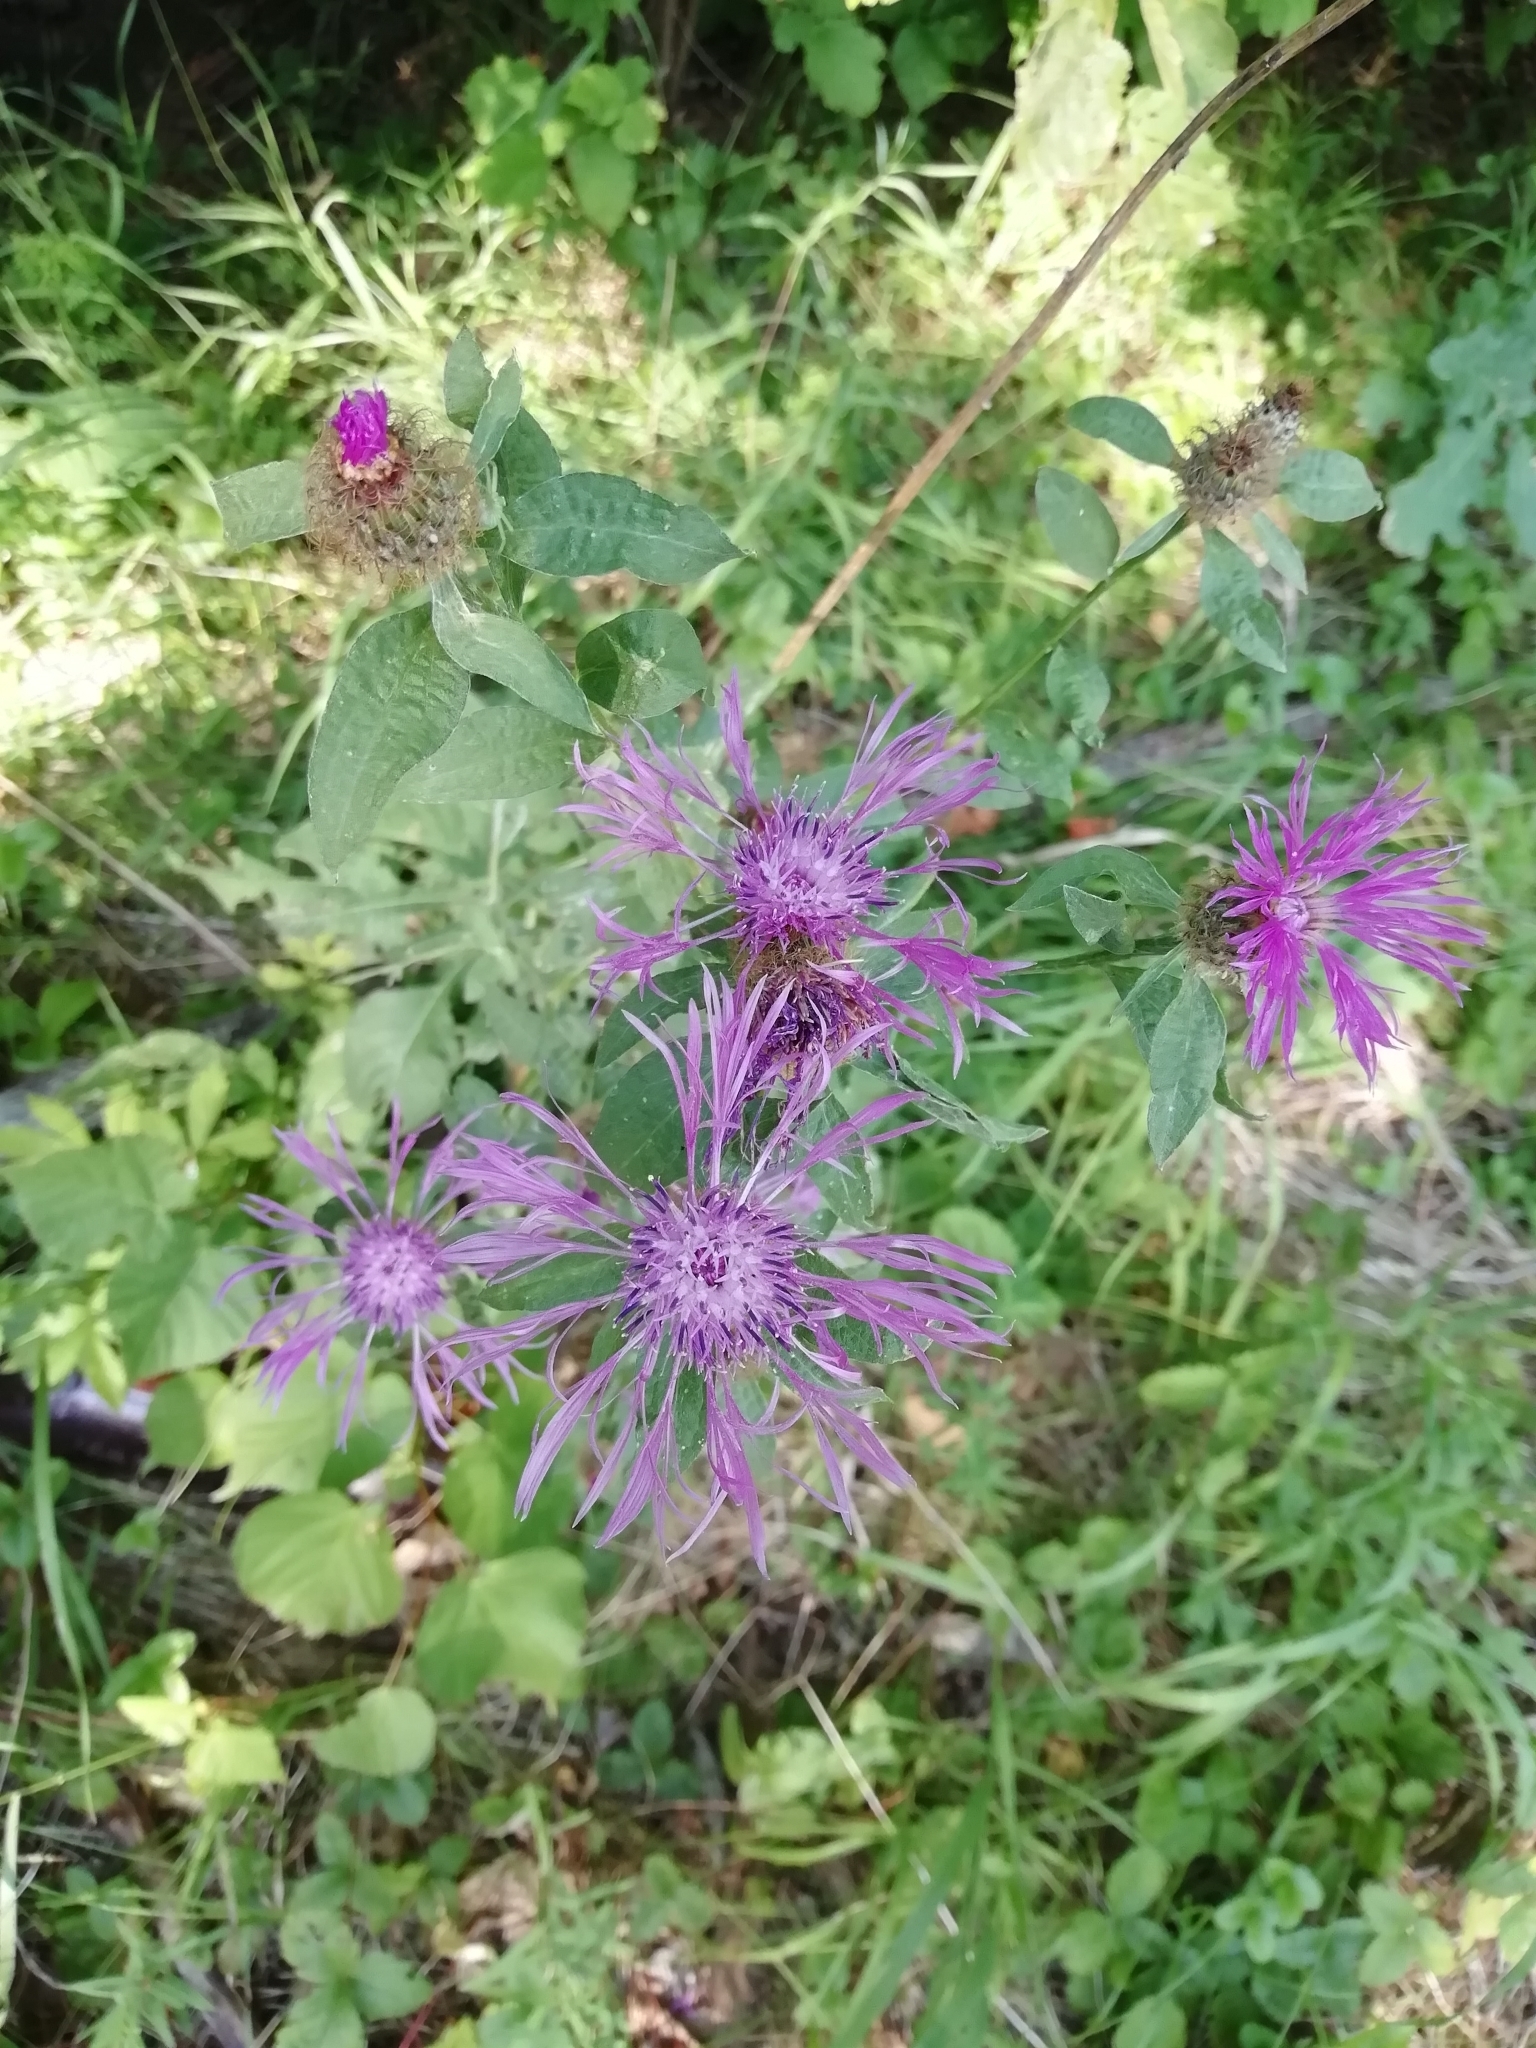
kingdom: Plantae
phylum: Tracheophyta
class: Magnoliopsida
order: Asterales
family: Asteraceae
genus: Centaurea
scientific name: Centaurea pseudophrygia
